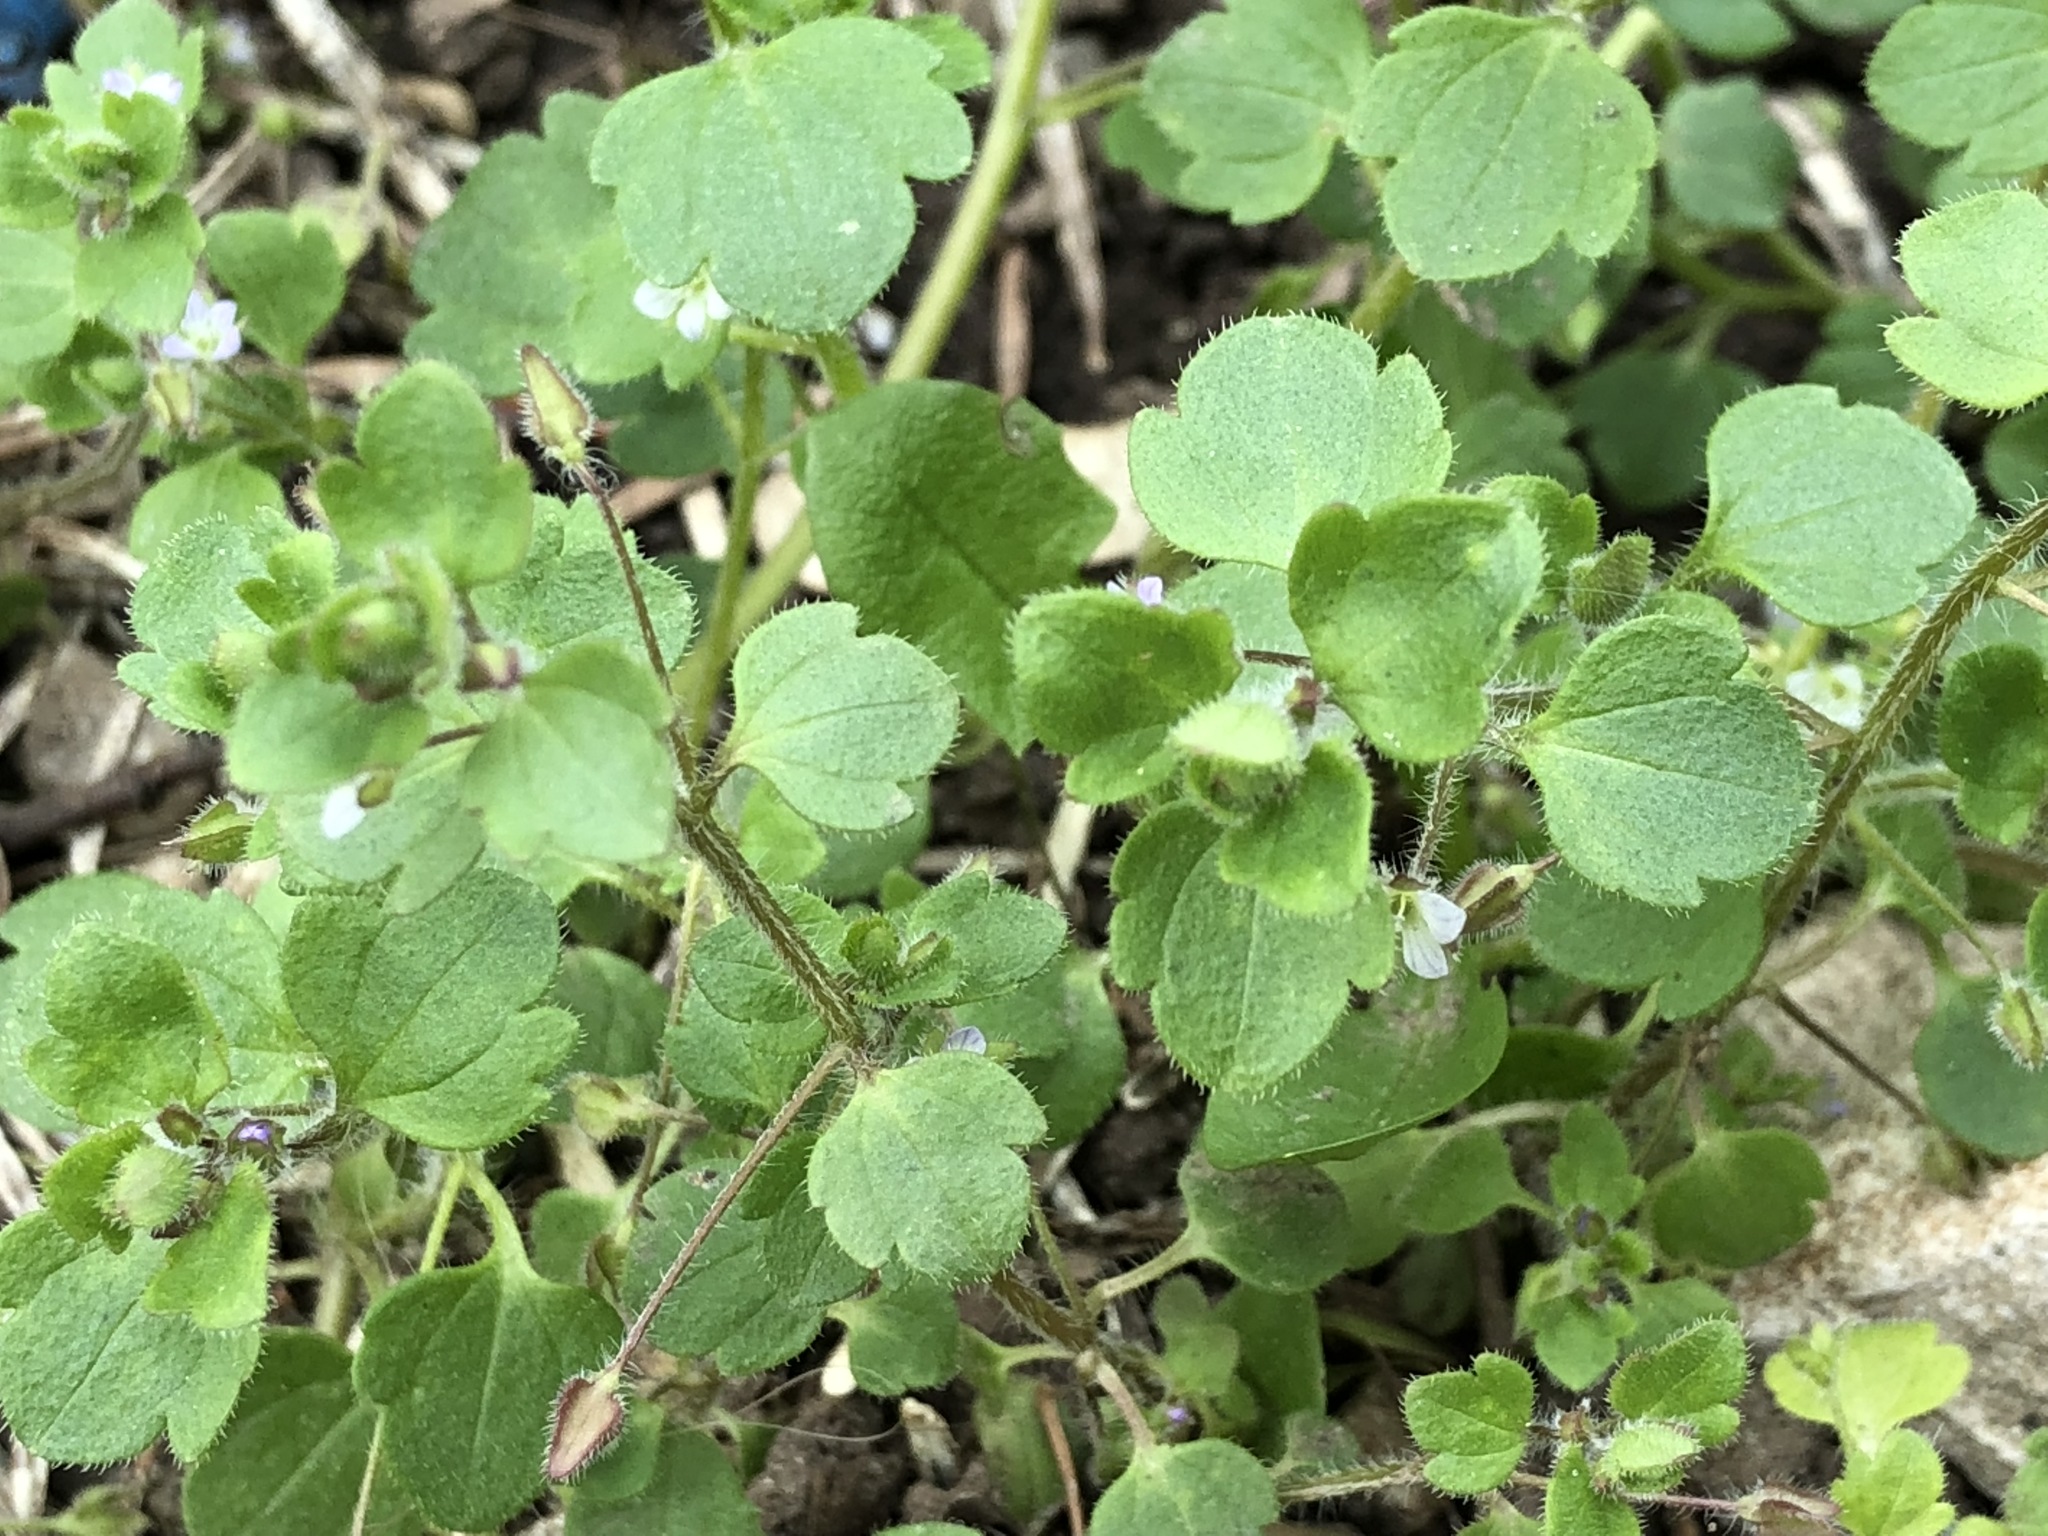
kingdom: Plantae
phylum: Tracheophyta
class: Magnoliopsida
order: Lamiales
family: Plantaginaceae
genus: Veronica
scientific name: Veronica sublobata
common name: False ivy-leaved speedwell
